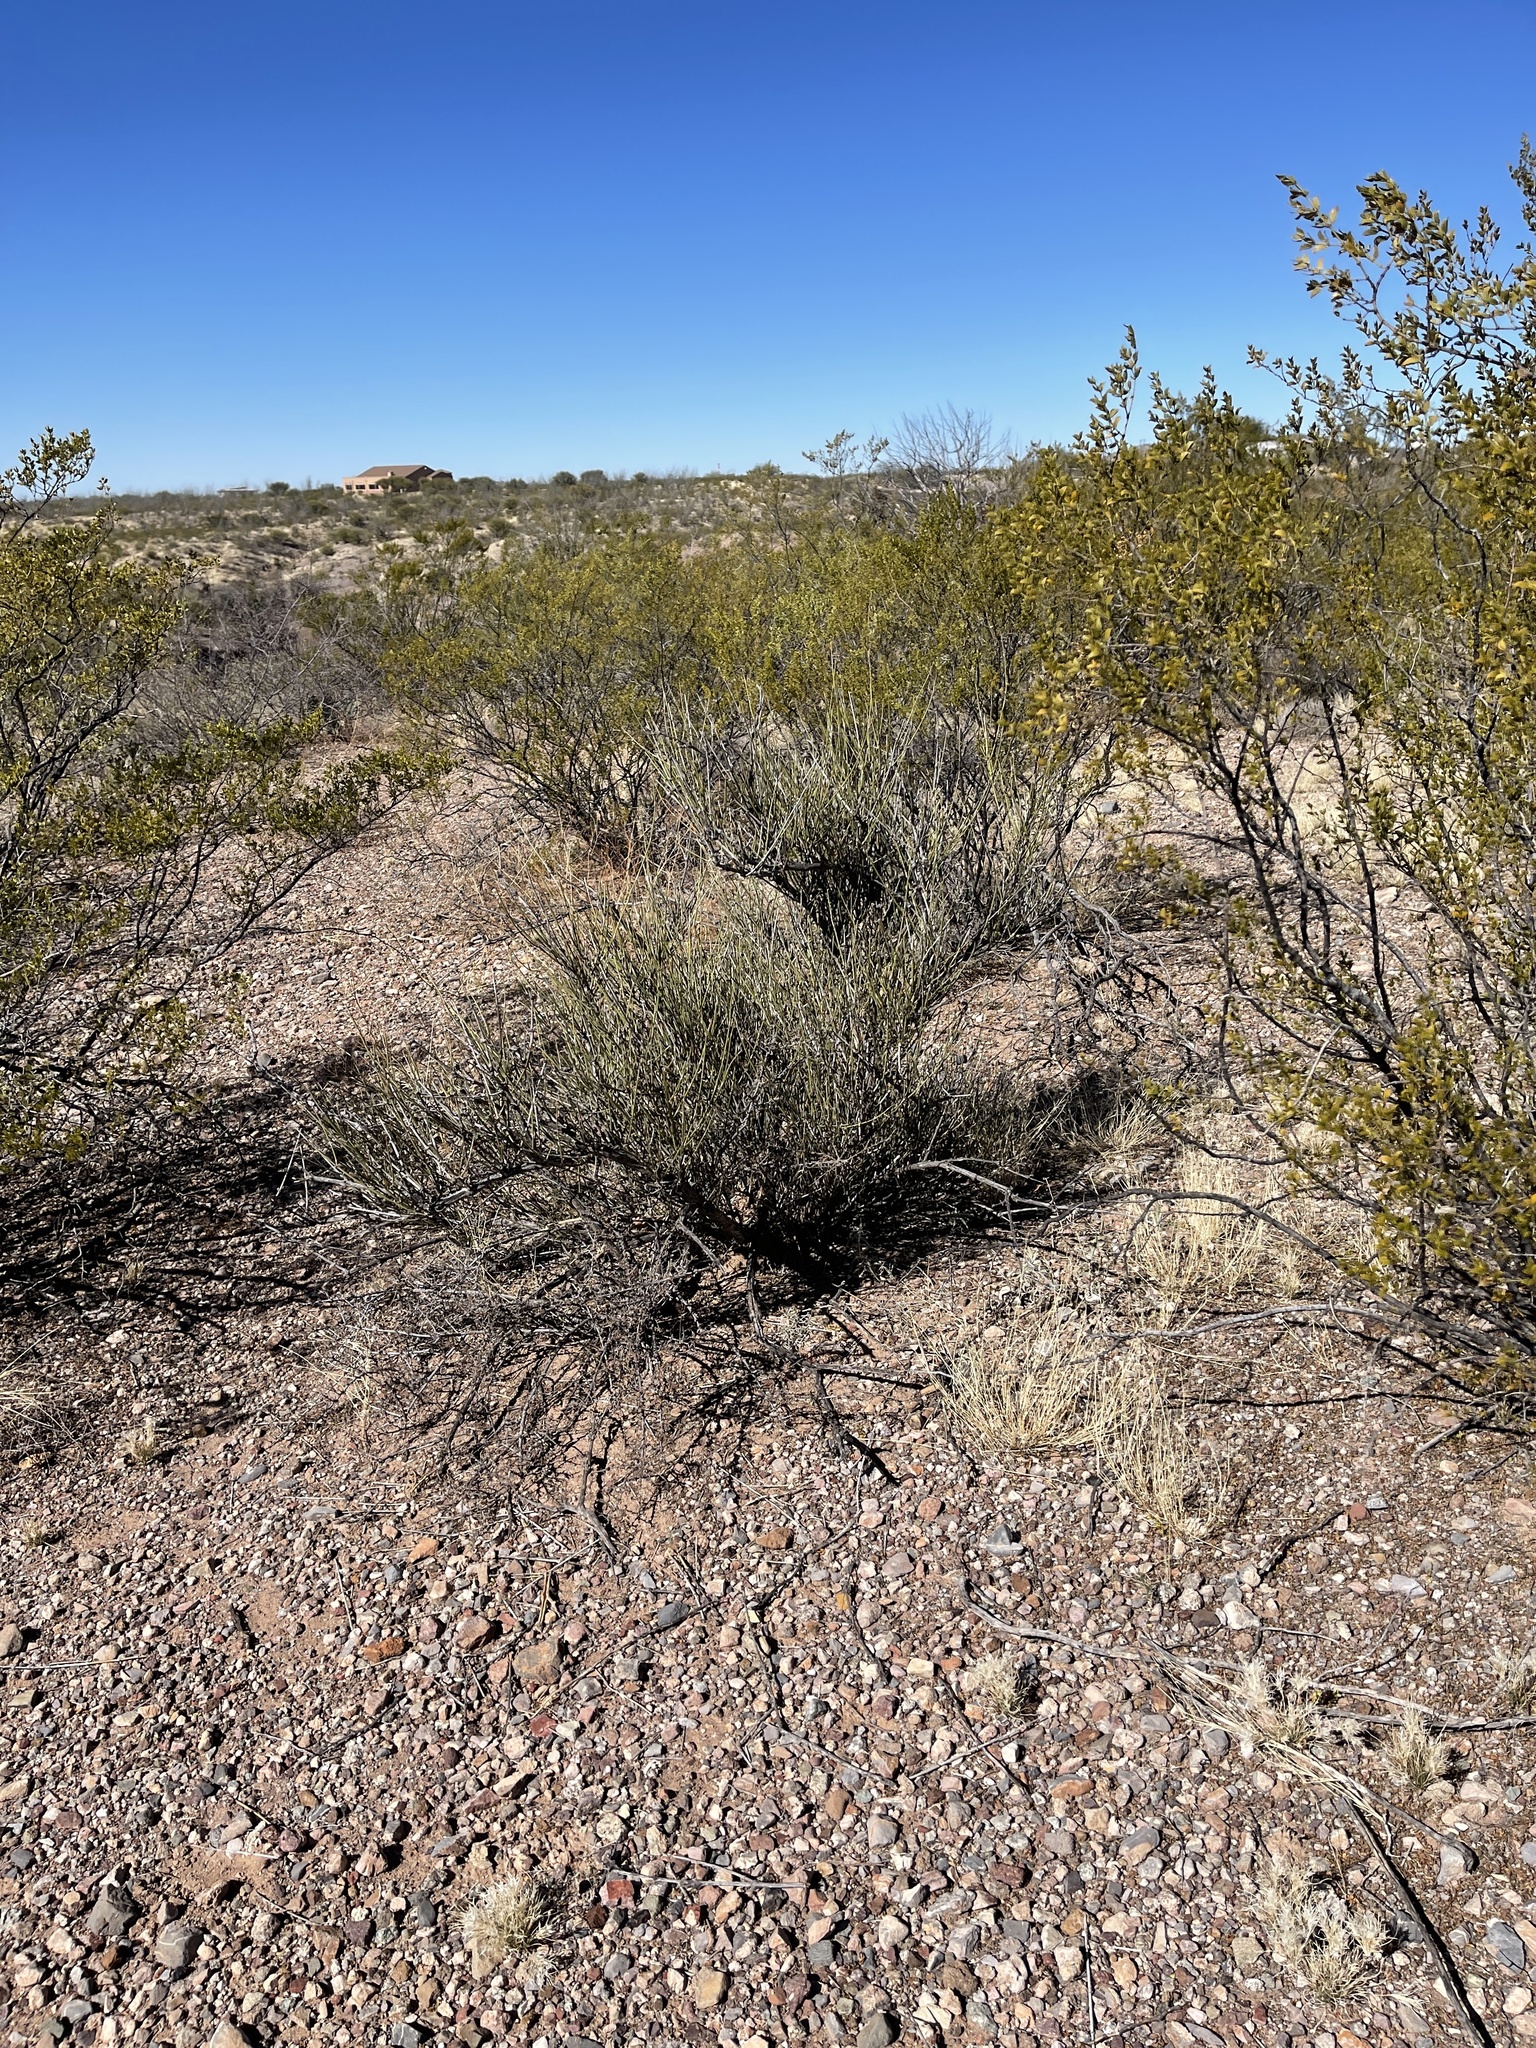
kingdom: Plantae
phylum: Tracheophyta
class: Gnetopsida
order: Ephedrales
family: Ephedraceae
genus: Ephedra
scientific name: Ephedra trifurca
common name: Mexican-tea
